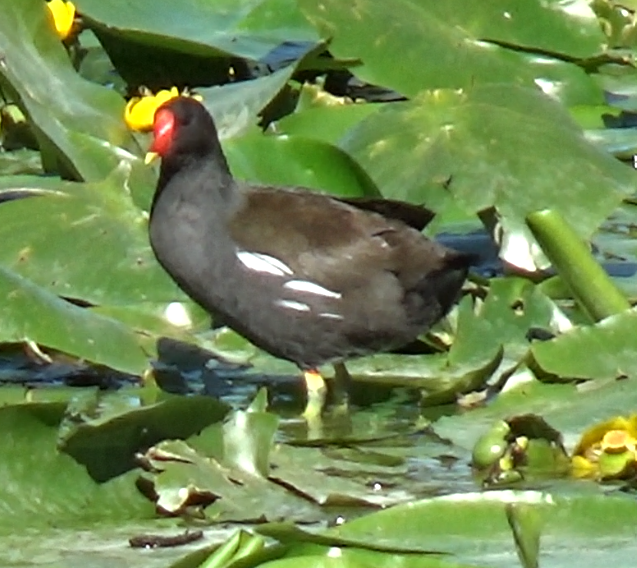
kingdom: Animalia
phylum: Chordata
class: Aves
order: Gruiformes
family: Rallidae
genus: Gallinula
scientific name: Gallinula chloropus
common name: Common moorhen
